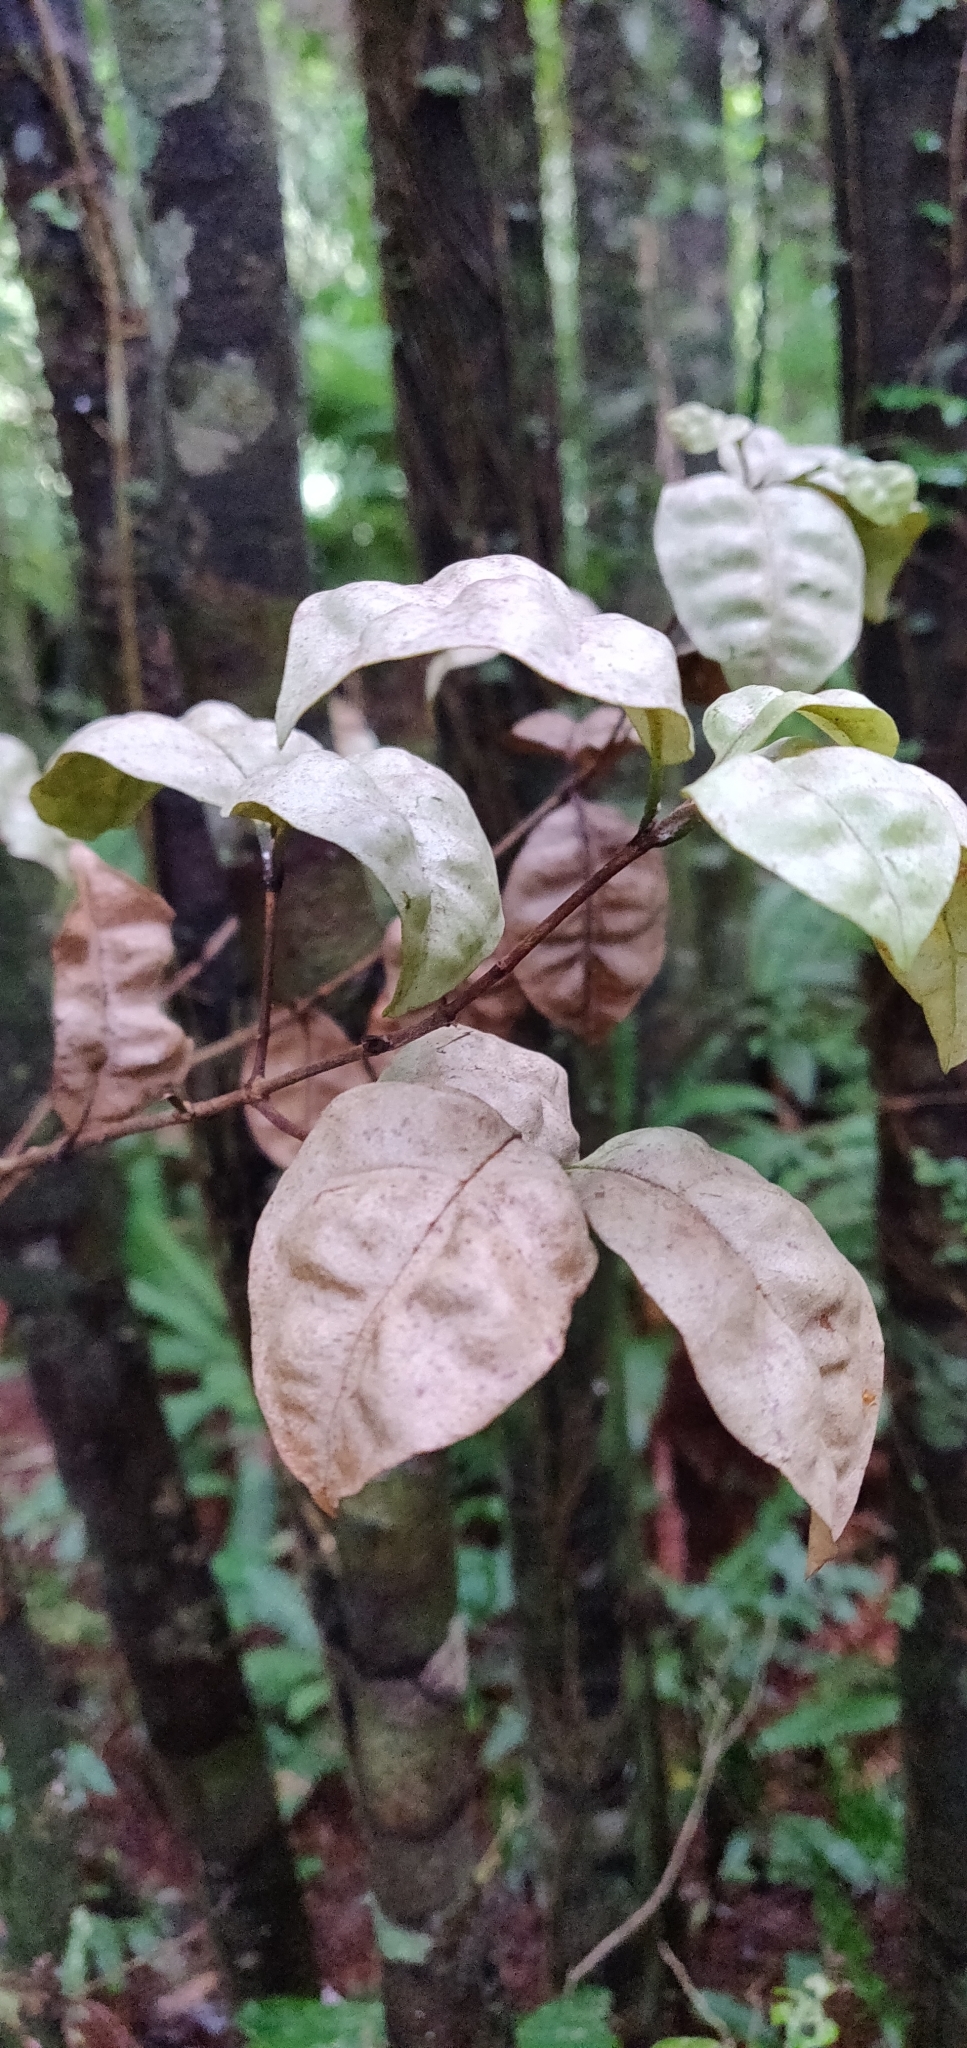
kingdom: Plantae
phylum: Tracheophyta
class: Magnoliopsida
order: Myrtales
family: Myrtaceae
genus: Lophomyrtus
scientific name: Lophomyrtus bullata
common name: Rama rama
